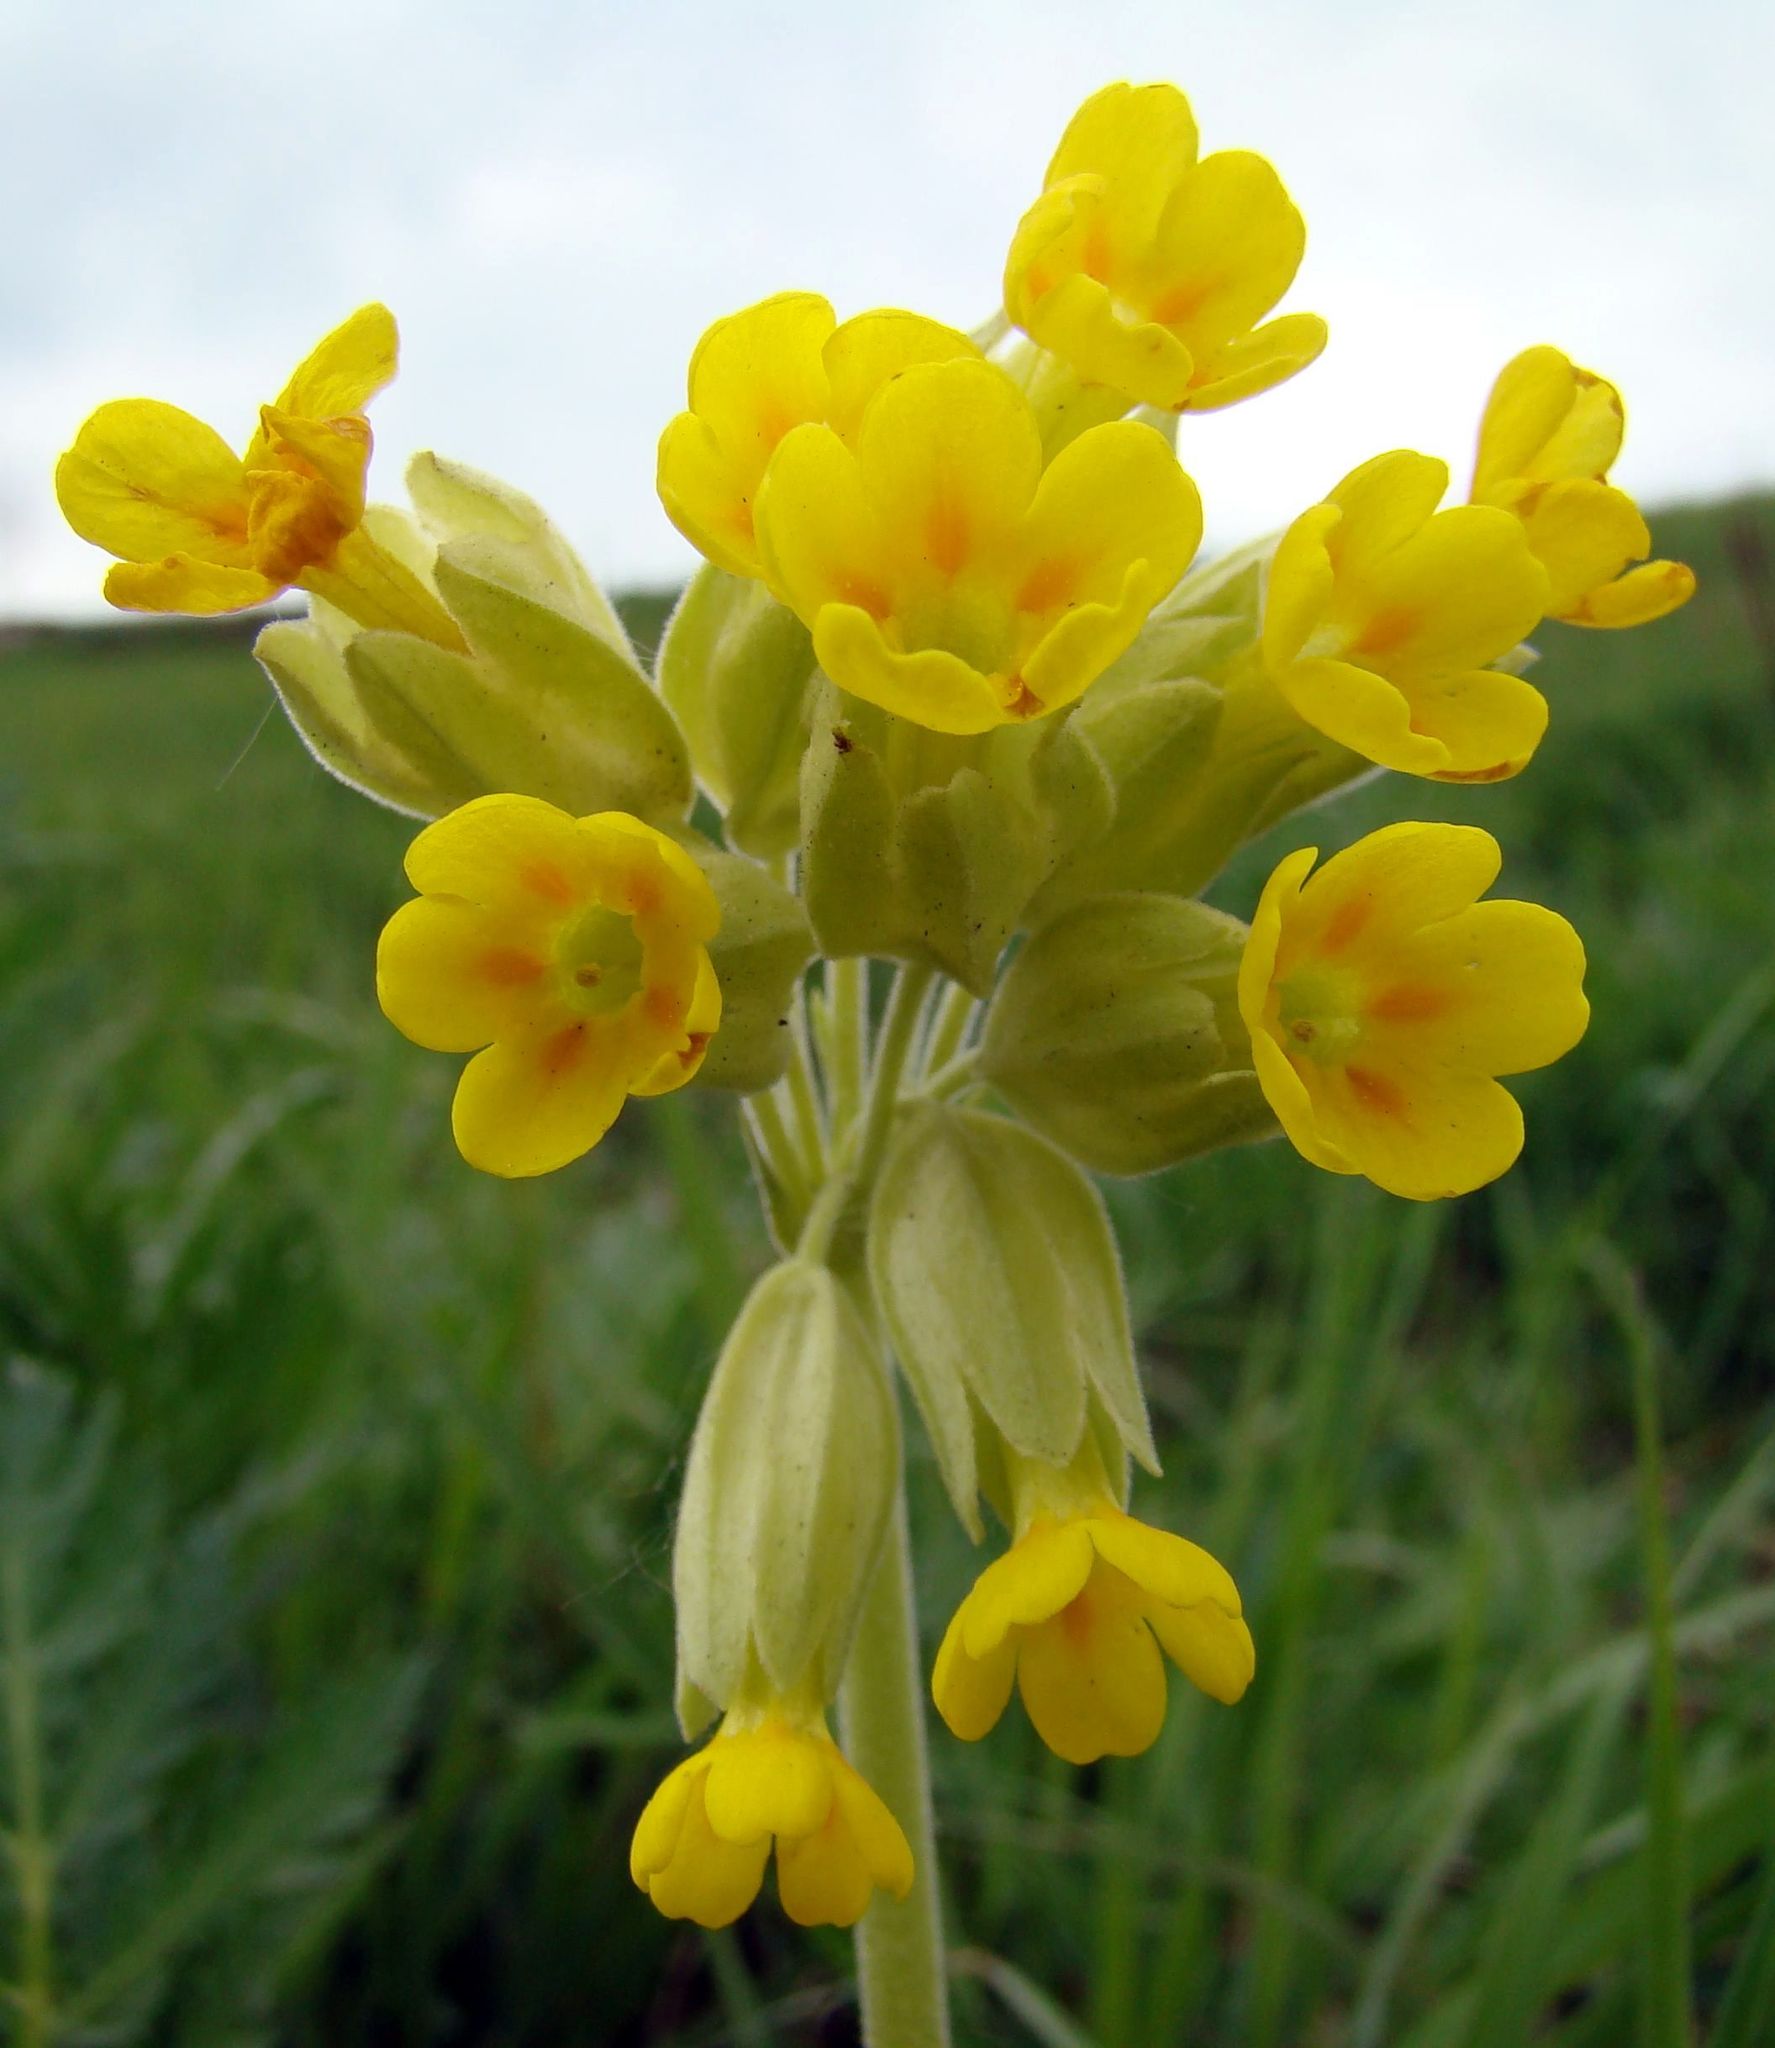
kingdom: Plantae
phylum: Tracheophyta
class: Magnoliopsida
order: Ericales
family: Primulaceae
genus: Primula
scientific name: Primula veris
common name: Cowslip
